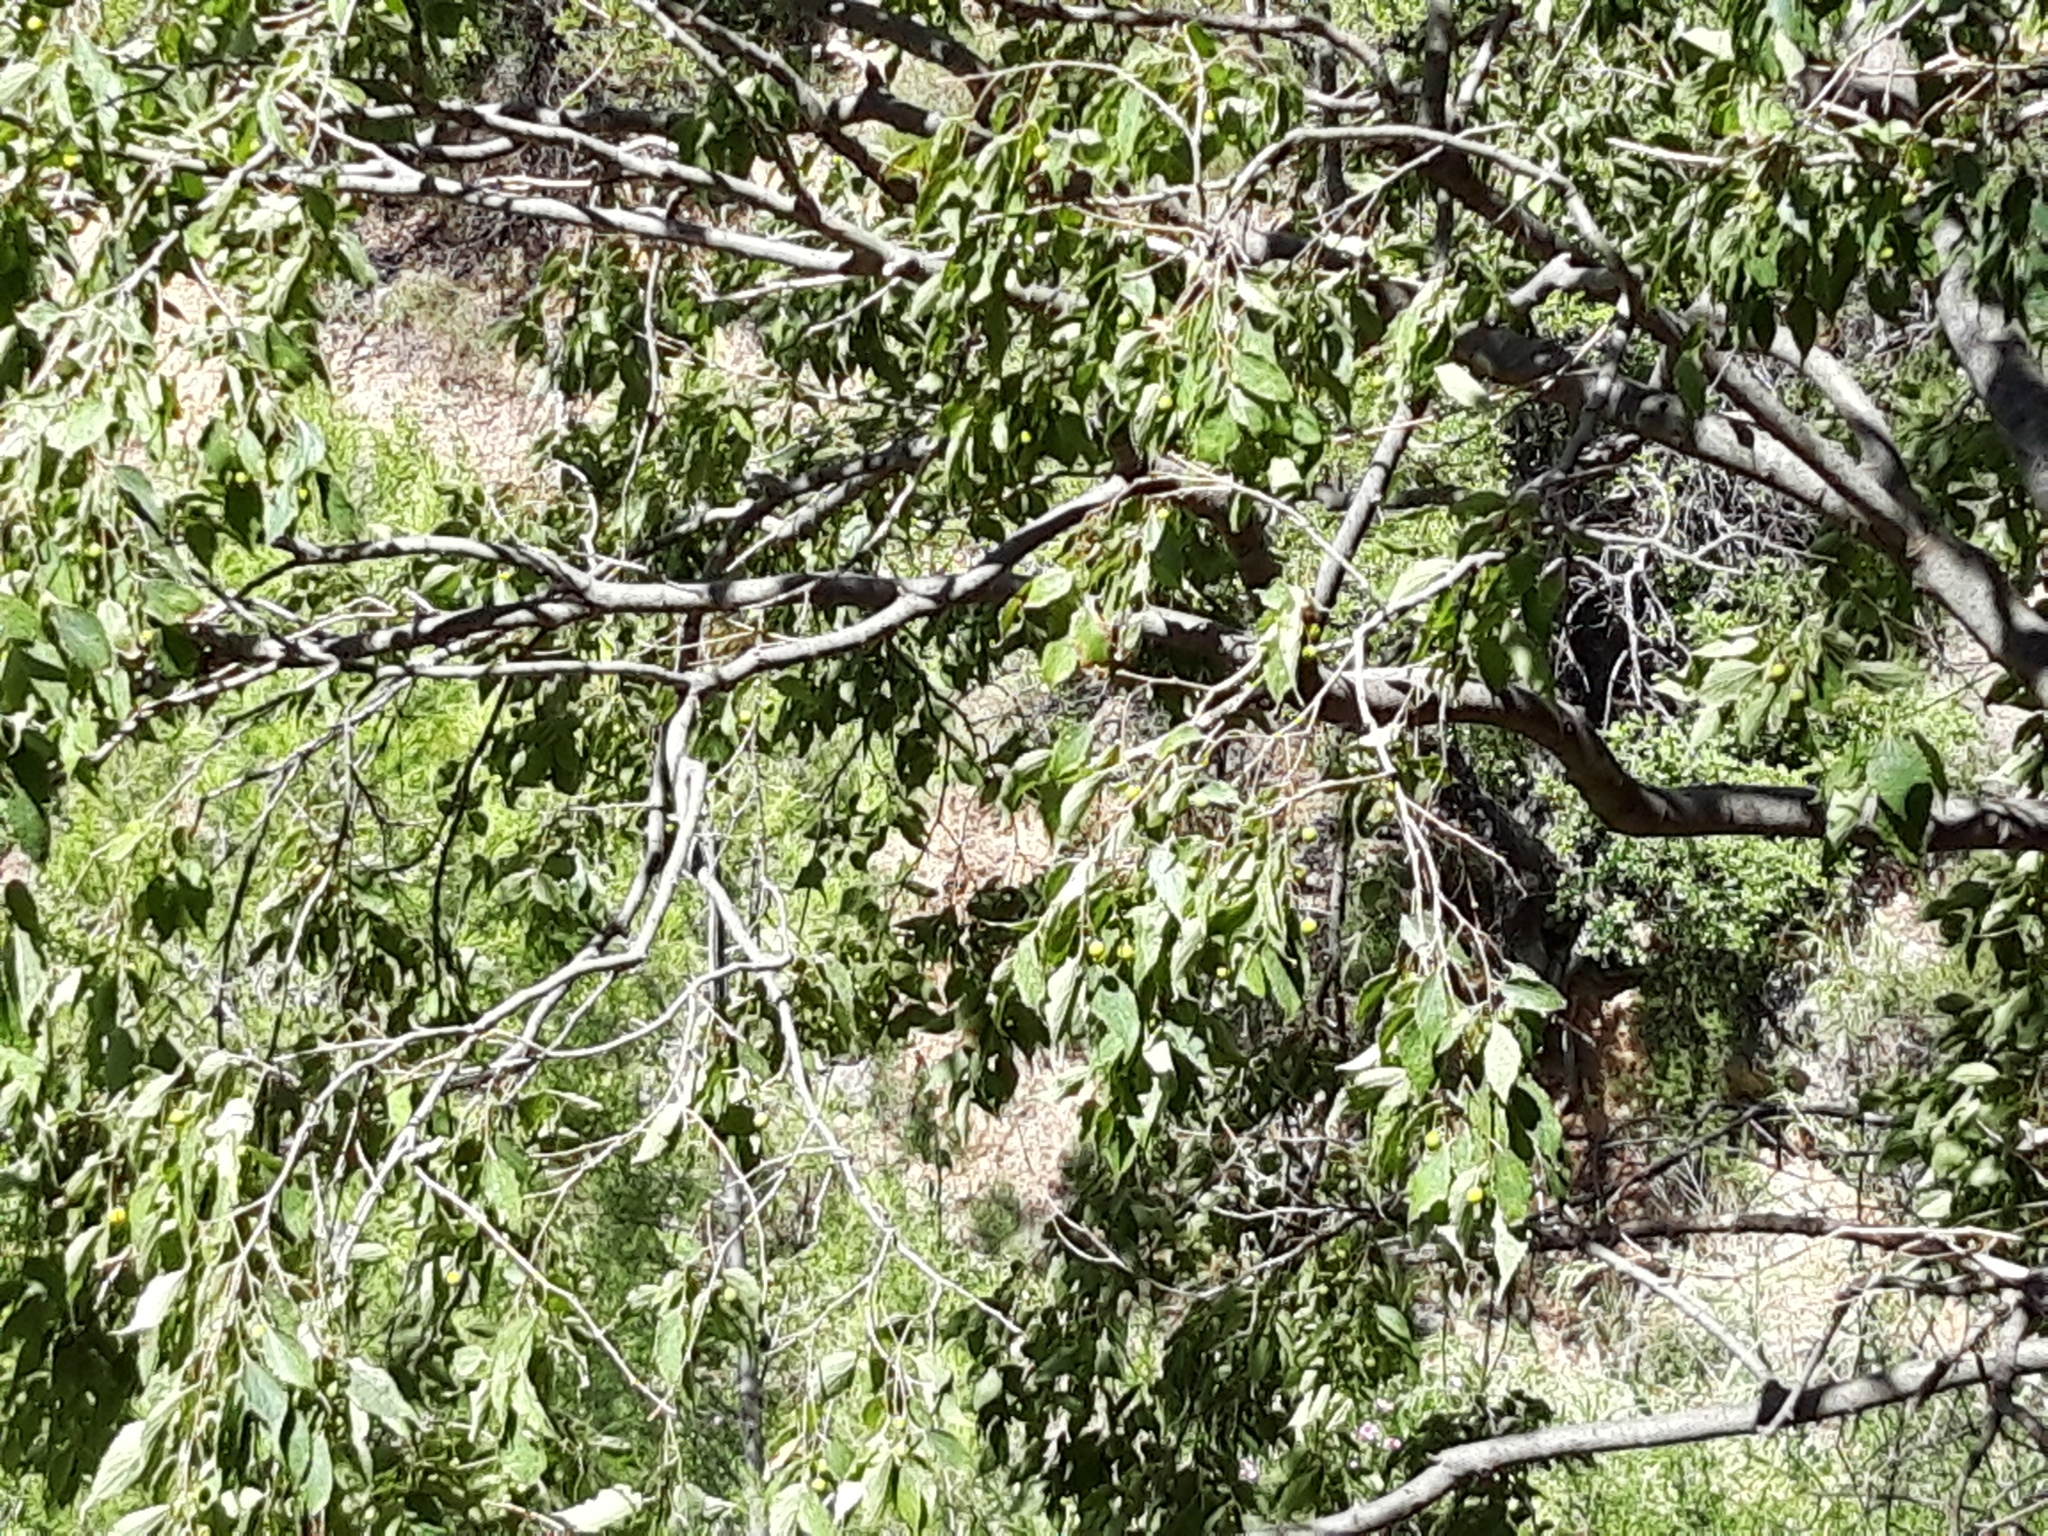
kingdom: Plantae
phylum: Tracheophyta
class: Magnoliopsida
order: Rosales
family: Cannabaceae
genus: Celtis
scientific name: Celtis australis
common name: European hackberry
